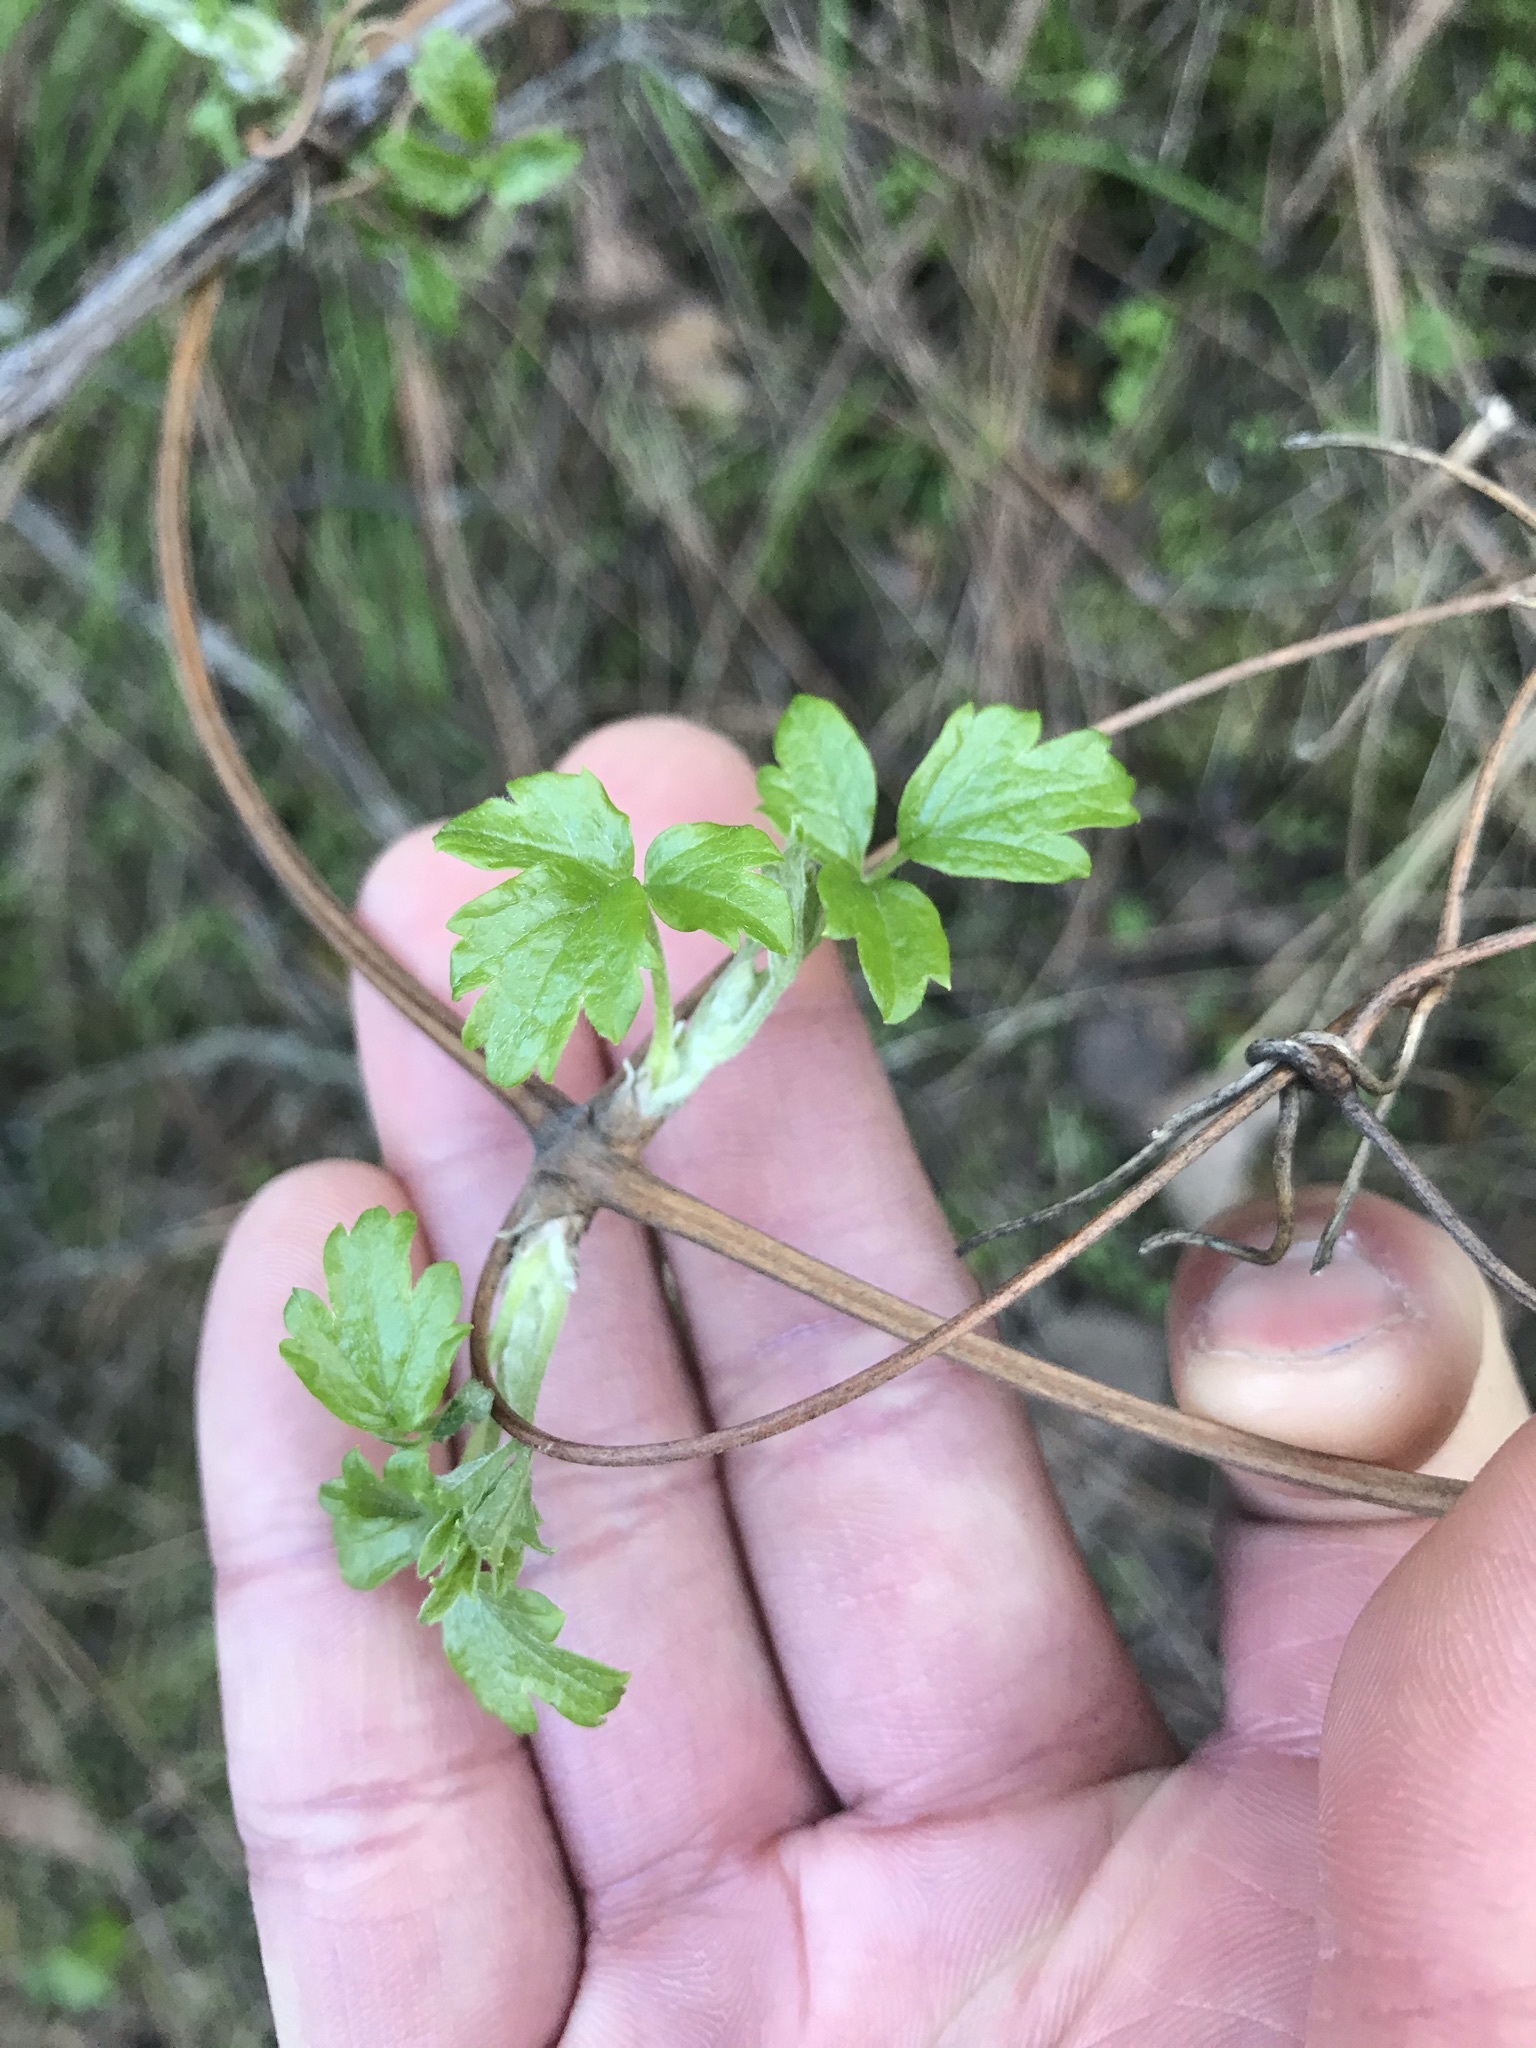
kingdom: Plantae
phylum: Tracheophyta
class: Magnoliopsida
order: Ranunculales
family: Ranunculaceae
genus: Clematis
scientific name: Clematis lasiantha
